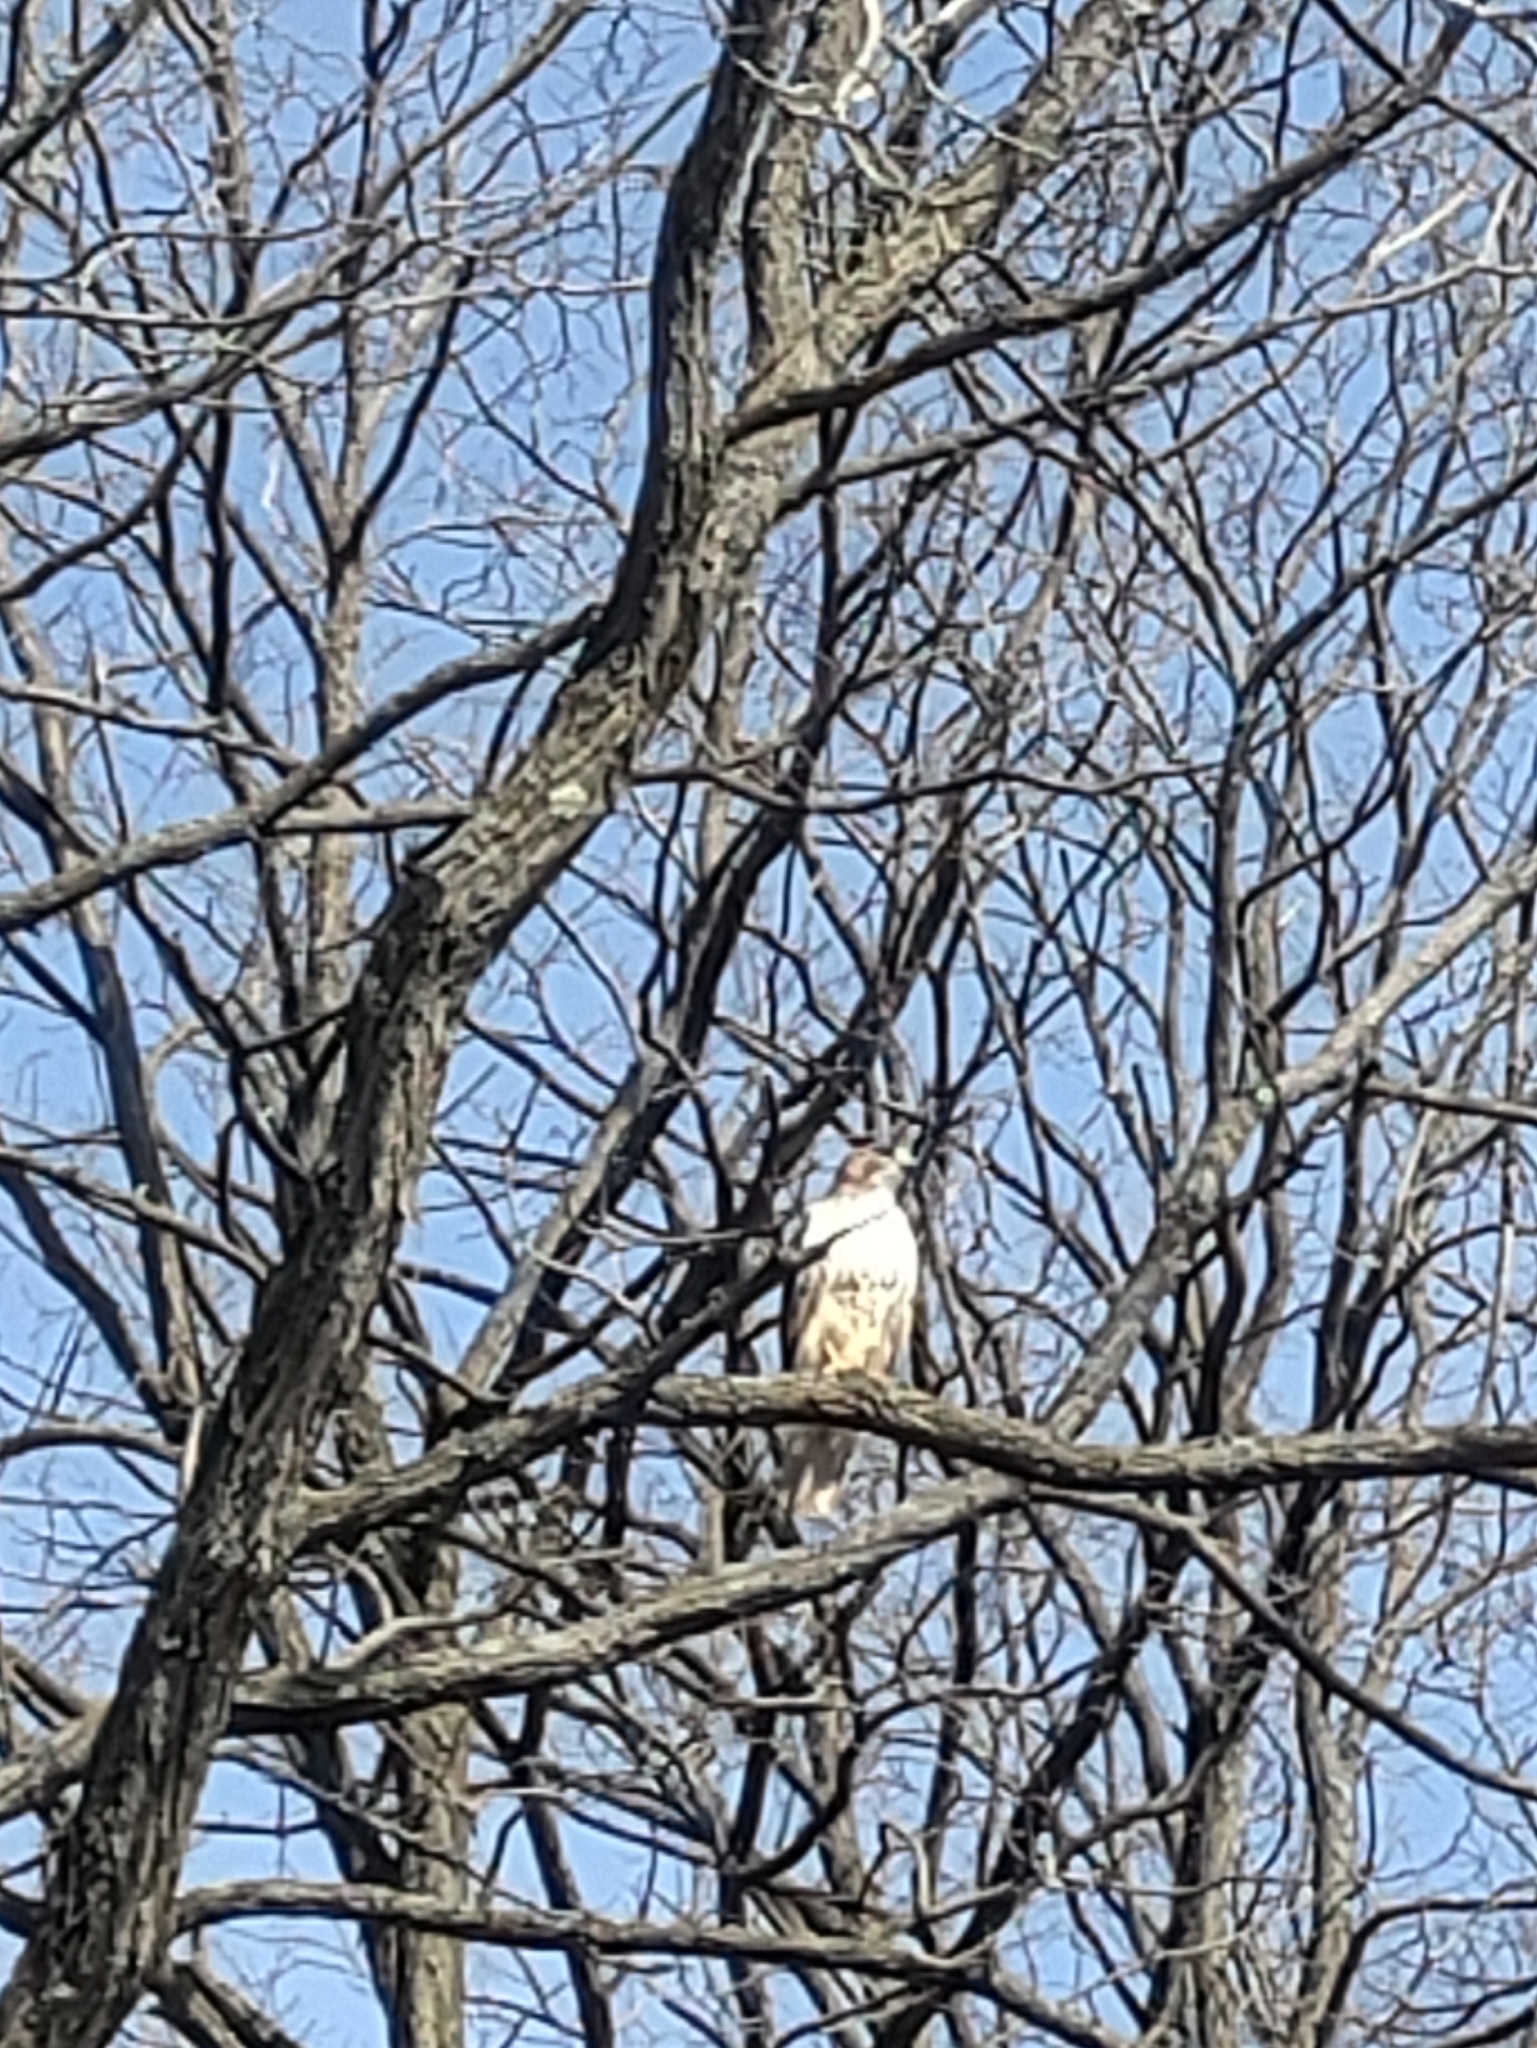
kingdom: Animalia
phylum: Chordata
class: Aves
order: Accipitriformes
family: Accipitridae
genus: Buteo
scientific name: Buteo jamaicensis
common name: Red-tailed hawk
